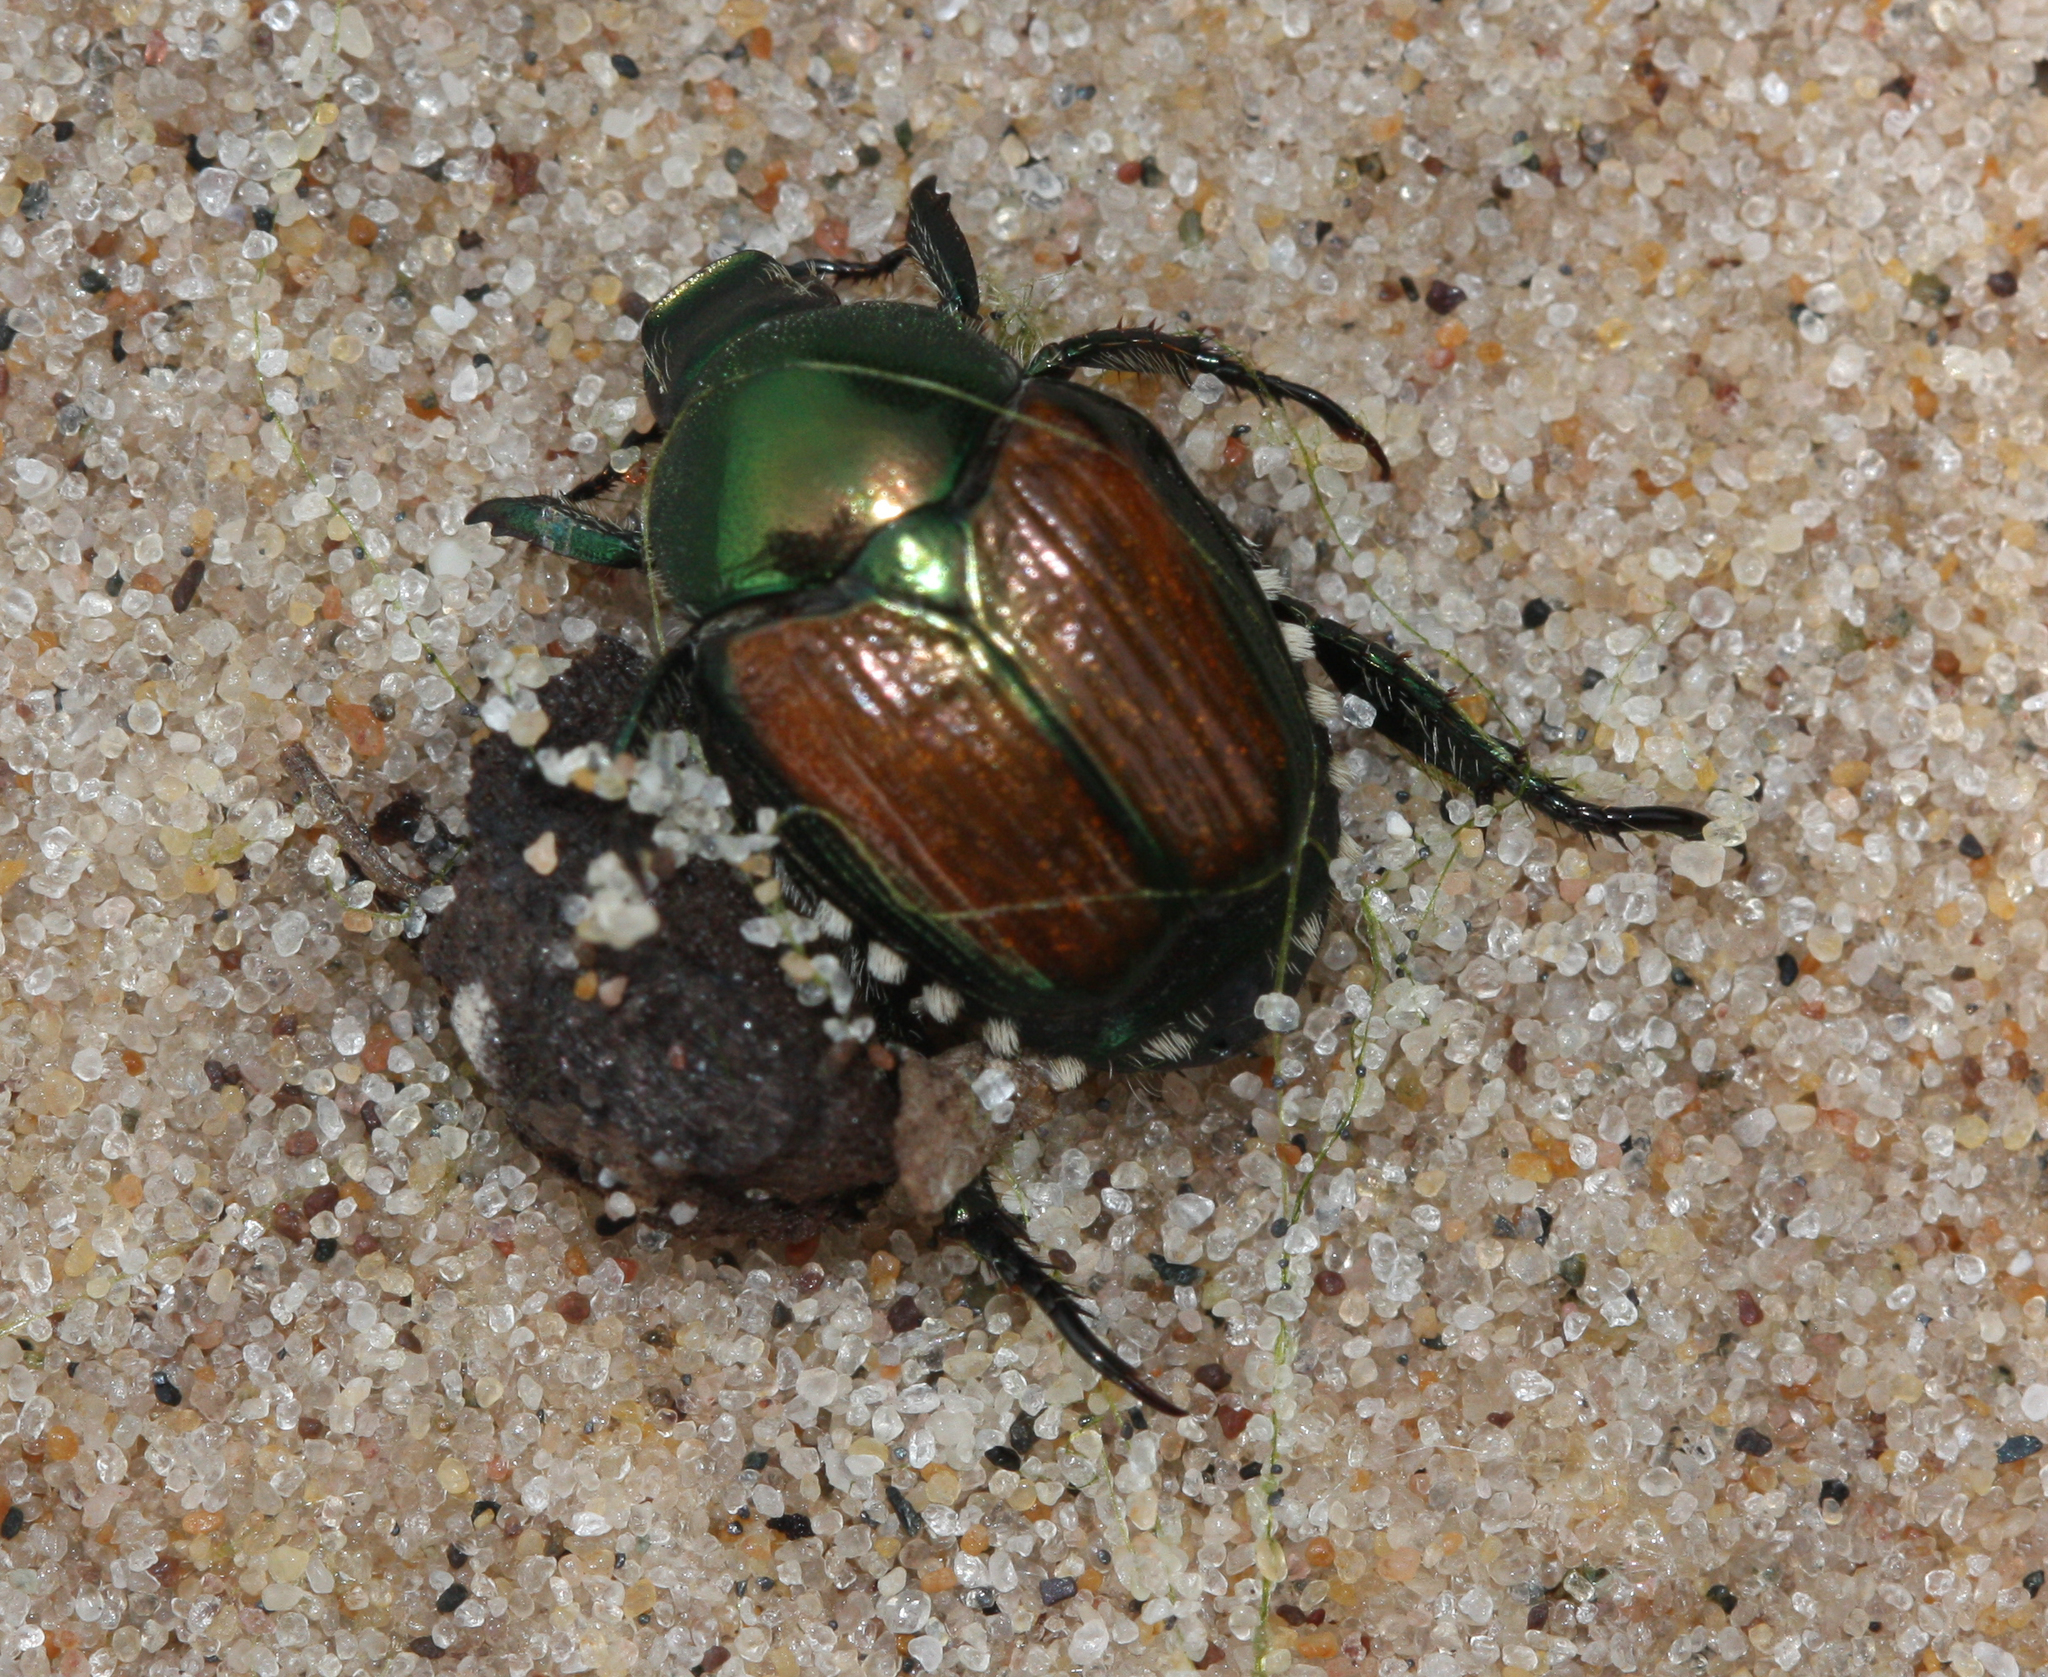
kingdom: Animalia
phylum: Arthropoda
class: Insecta
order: Coleoptera
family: Scarabaeidae
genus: Popillia
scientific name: Popillia japonica
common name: Japanese beetle
